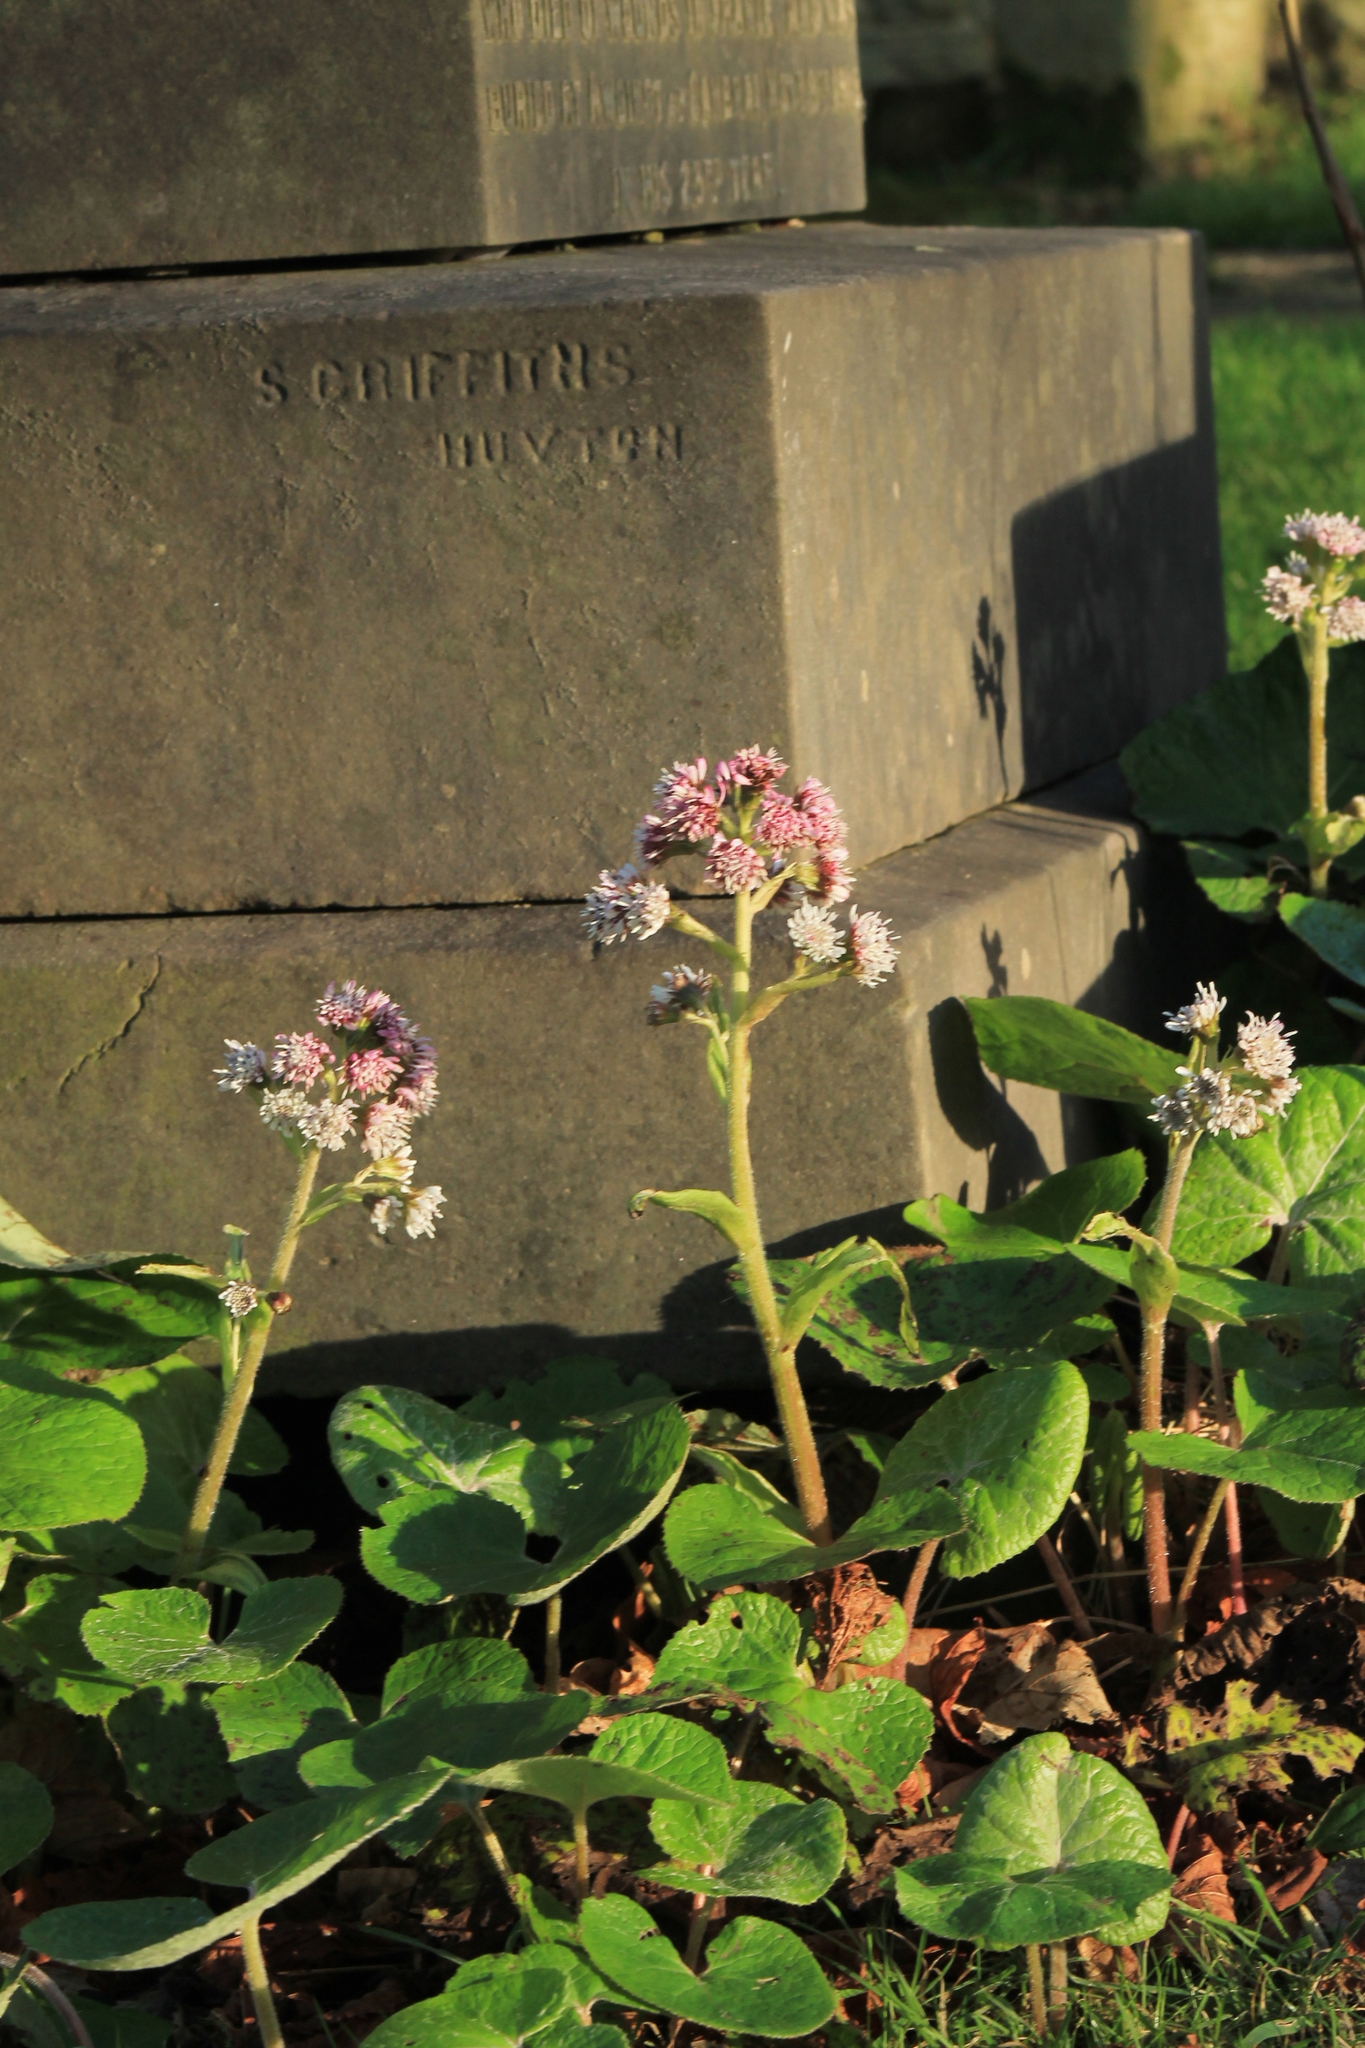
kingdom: Plantae
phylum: Tracheophyta
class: Magnoliopsida
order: Asterales
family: Asteraceae
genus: Petasites
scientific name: Petasites pyrenaicus
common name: Winter heliotrope
